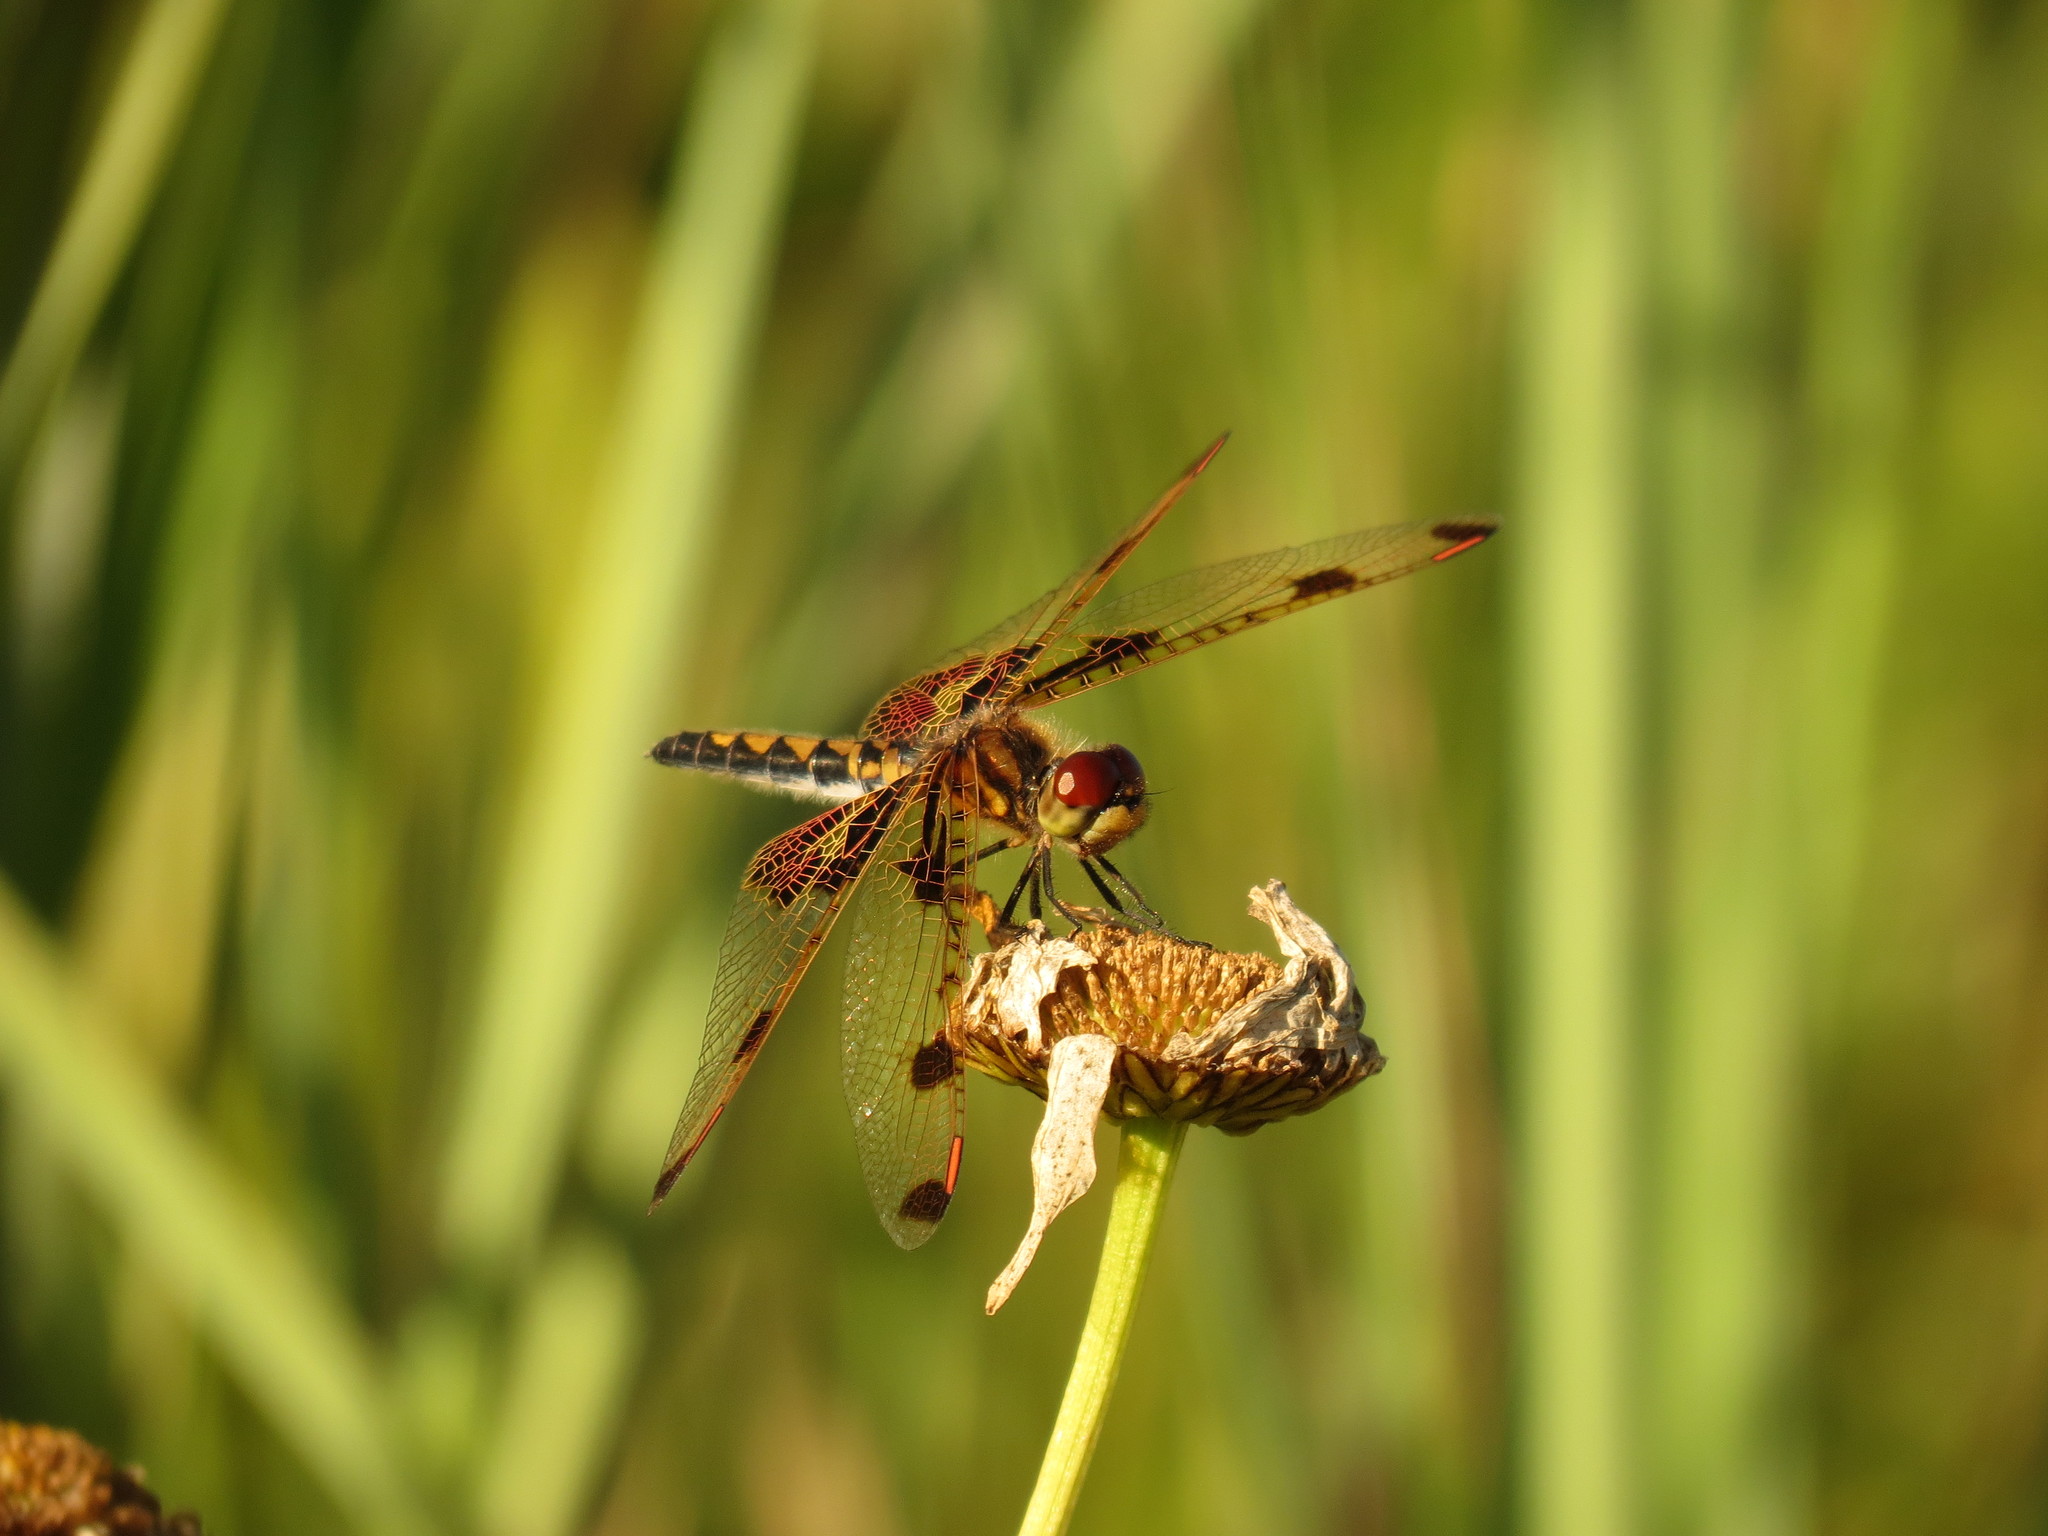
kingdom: Animalia
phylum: Arthropoda
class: Insecta
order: Odonata
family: Libellulidae
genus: Celithemis
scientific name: Celithemis elisa
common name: Calico pennant
